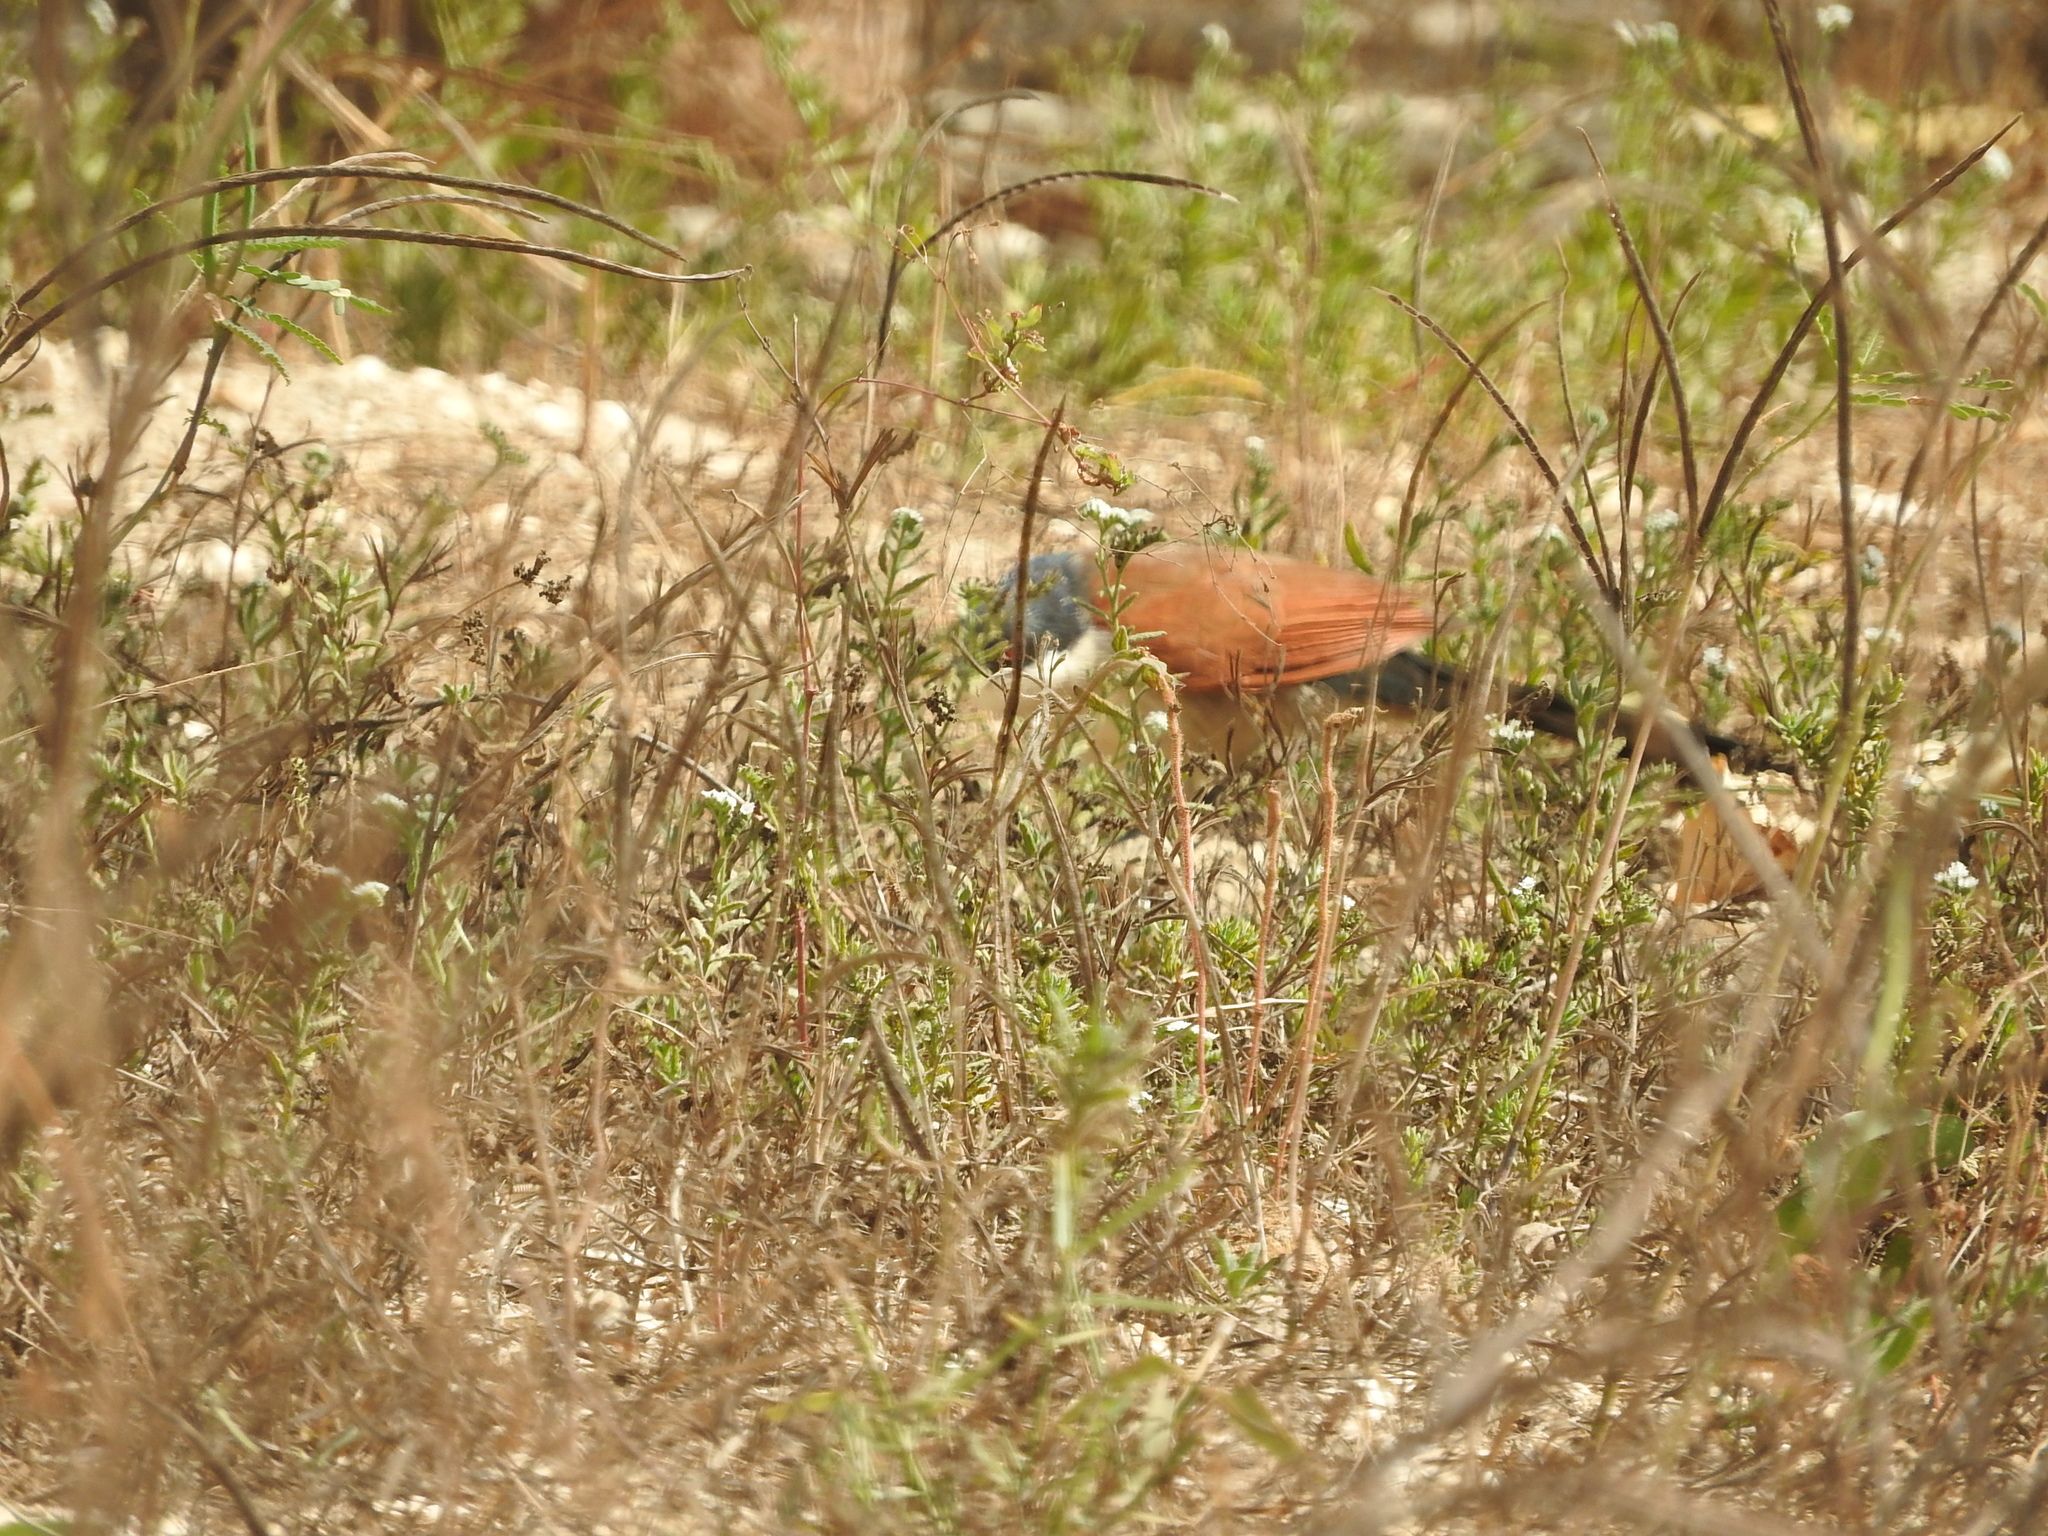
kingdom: Animalia
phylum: Chordata
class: Aves
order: Cuculiformes
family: Cuculidae
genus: Centropus
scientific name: Centropus senegalensis
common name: Senegal coucal
